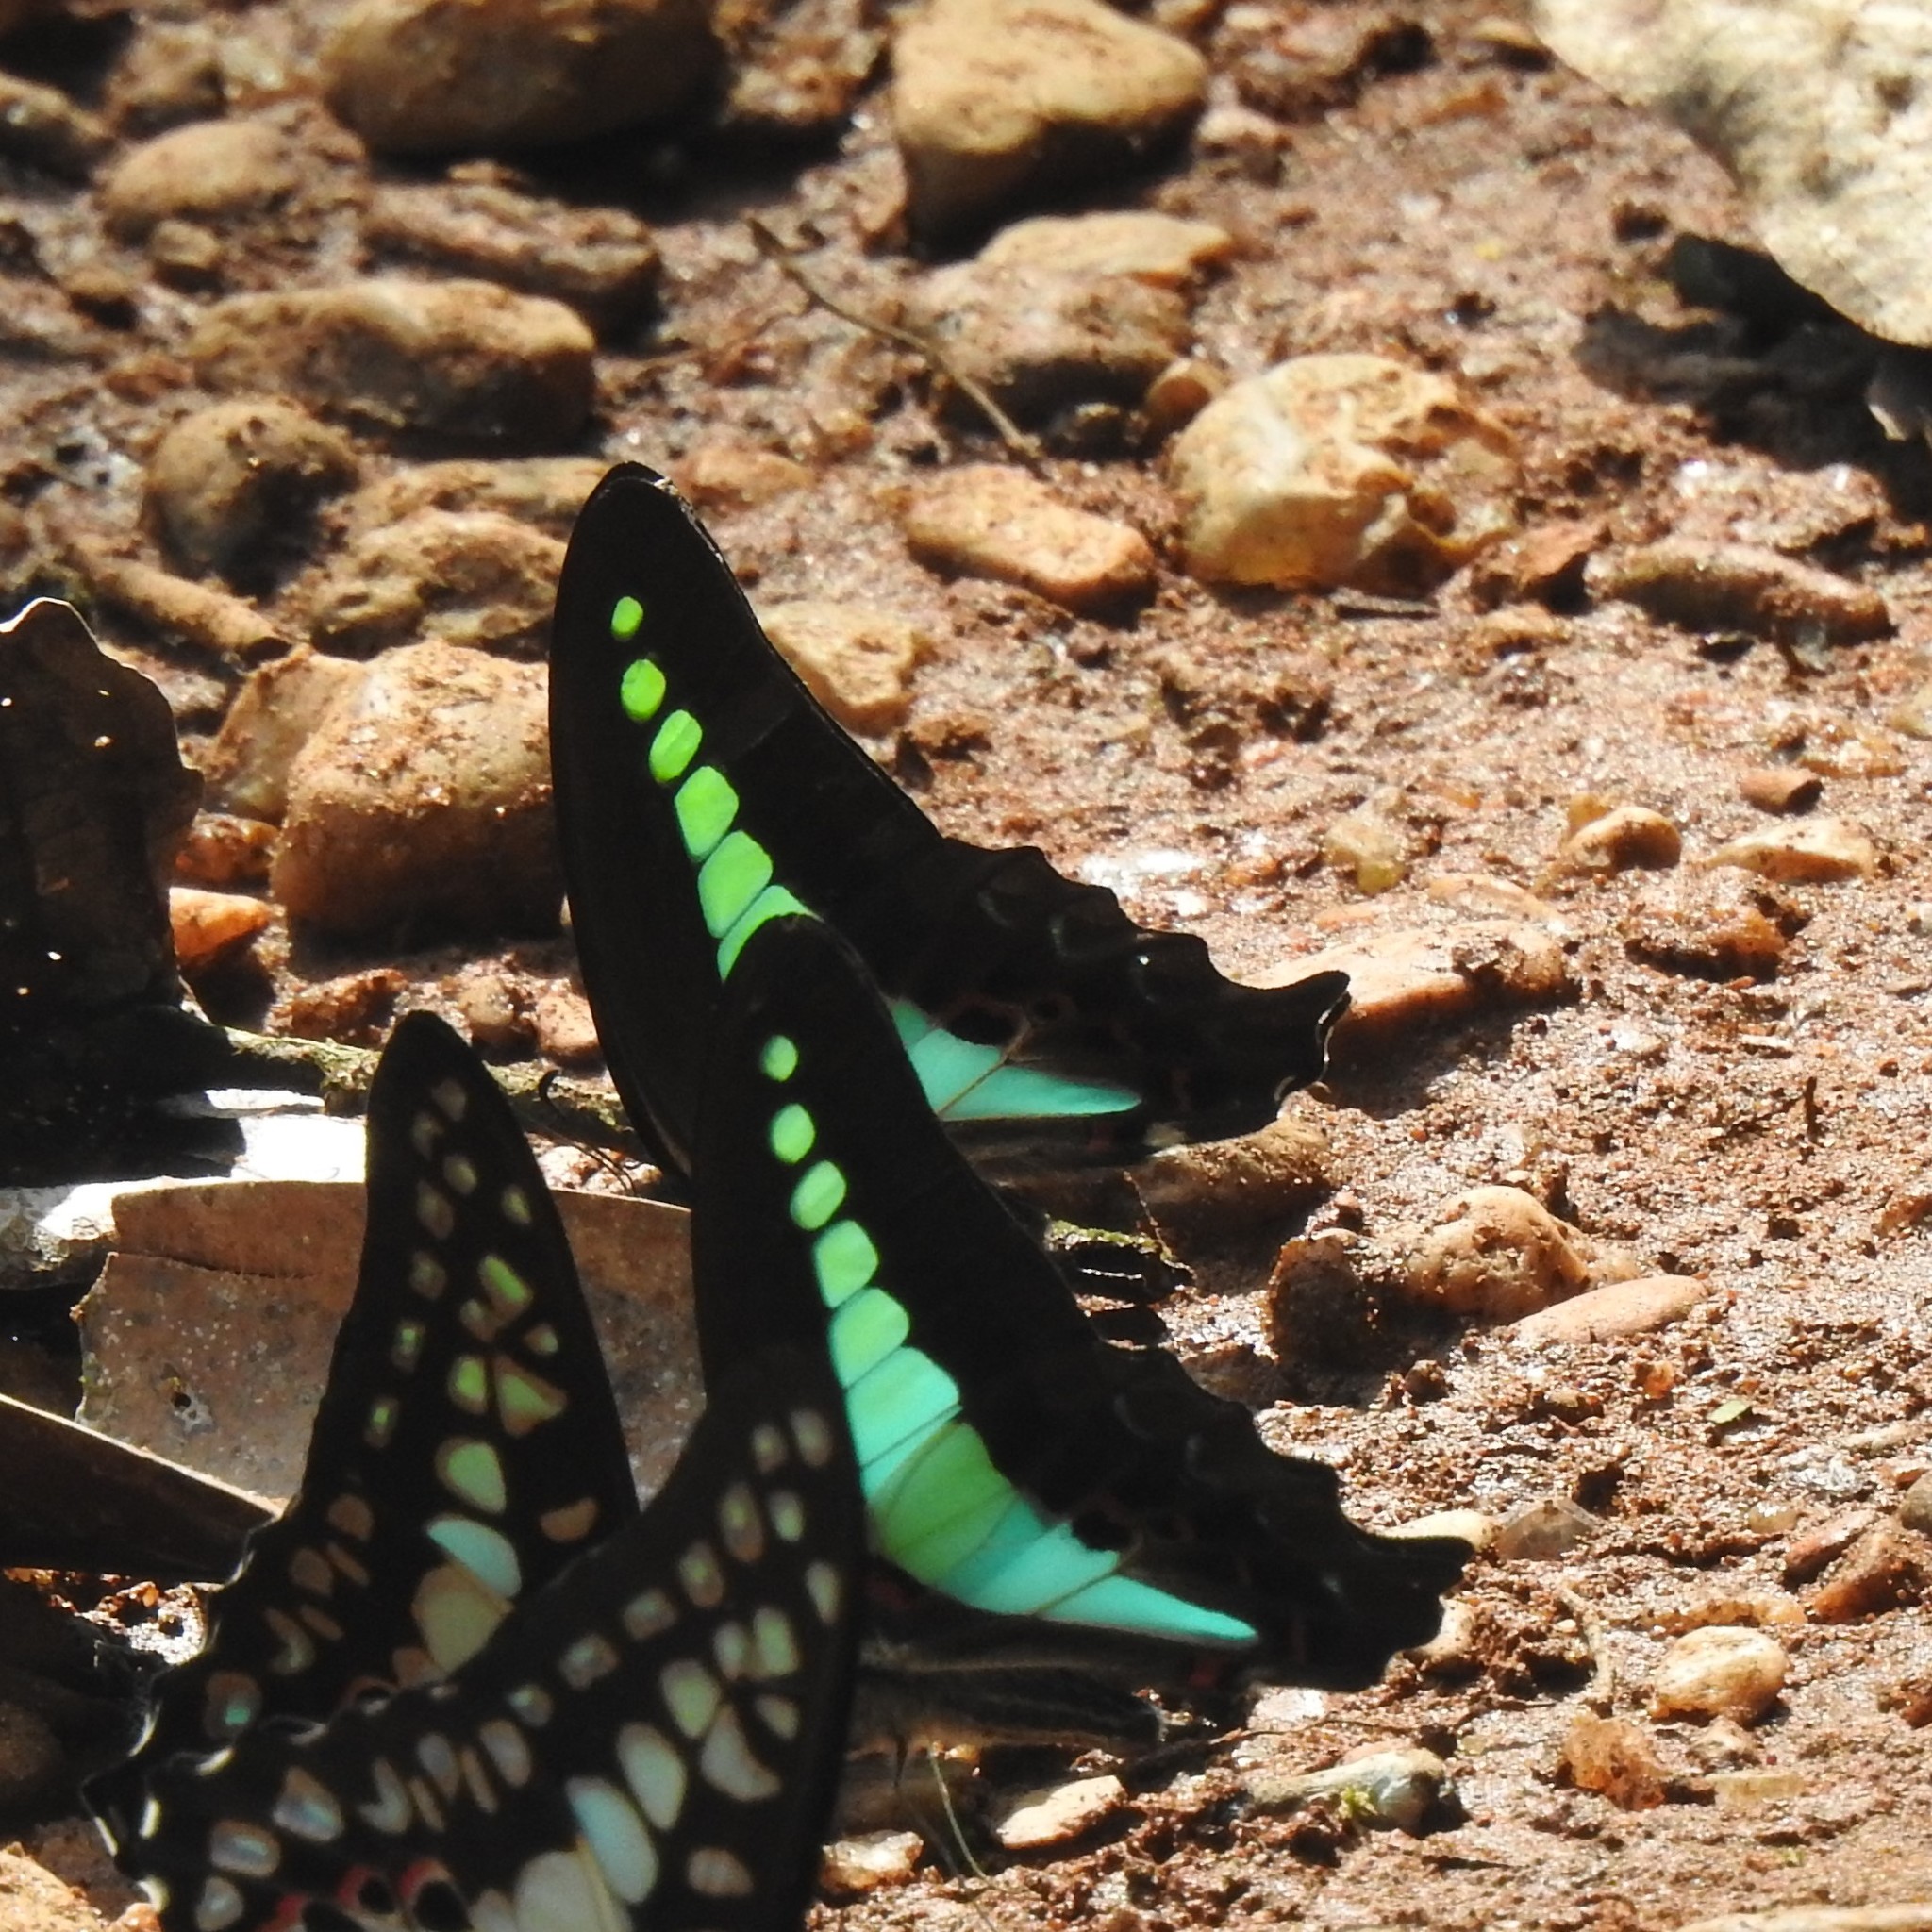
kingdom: Animalia
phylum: Arthropoda
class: Insecta
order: Lepidoptera
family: Papilionidae
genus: Graphium
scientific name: Graphium
